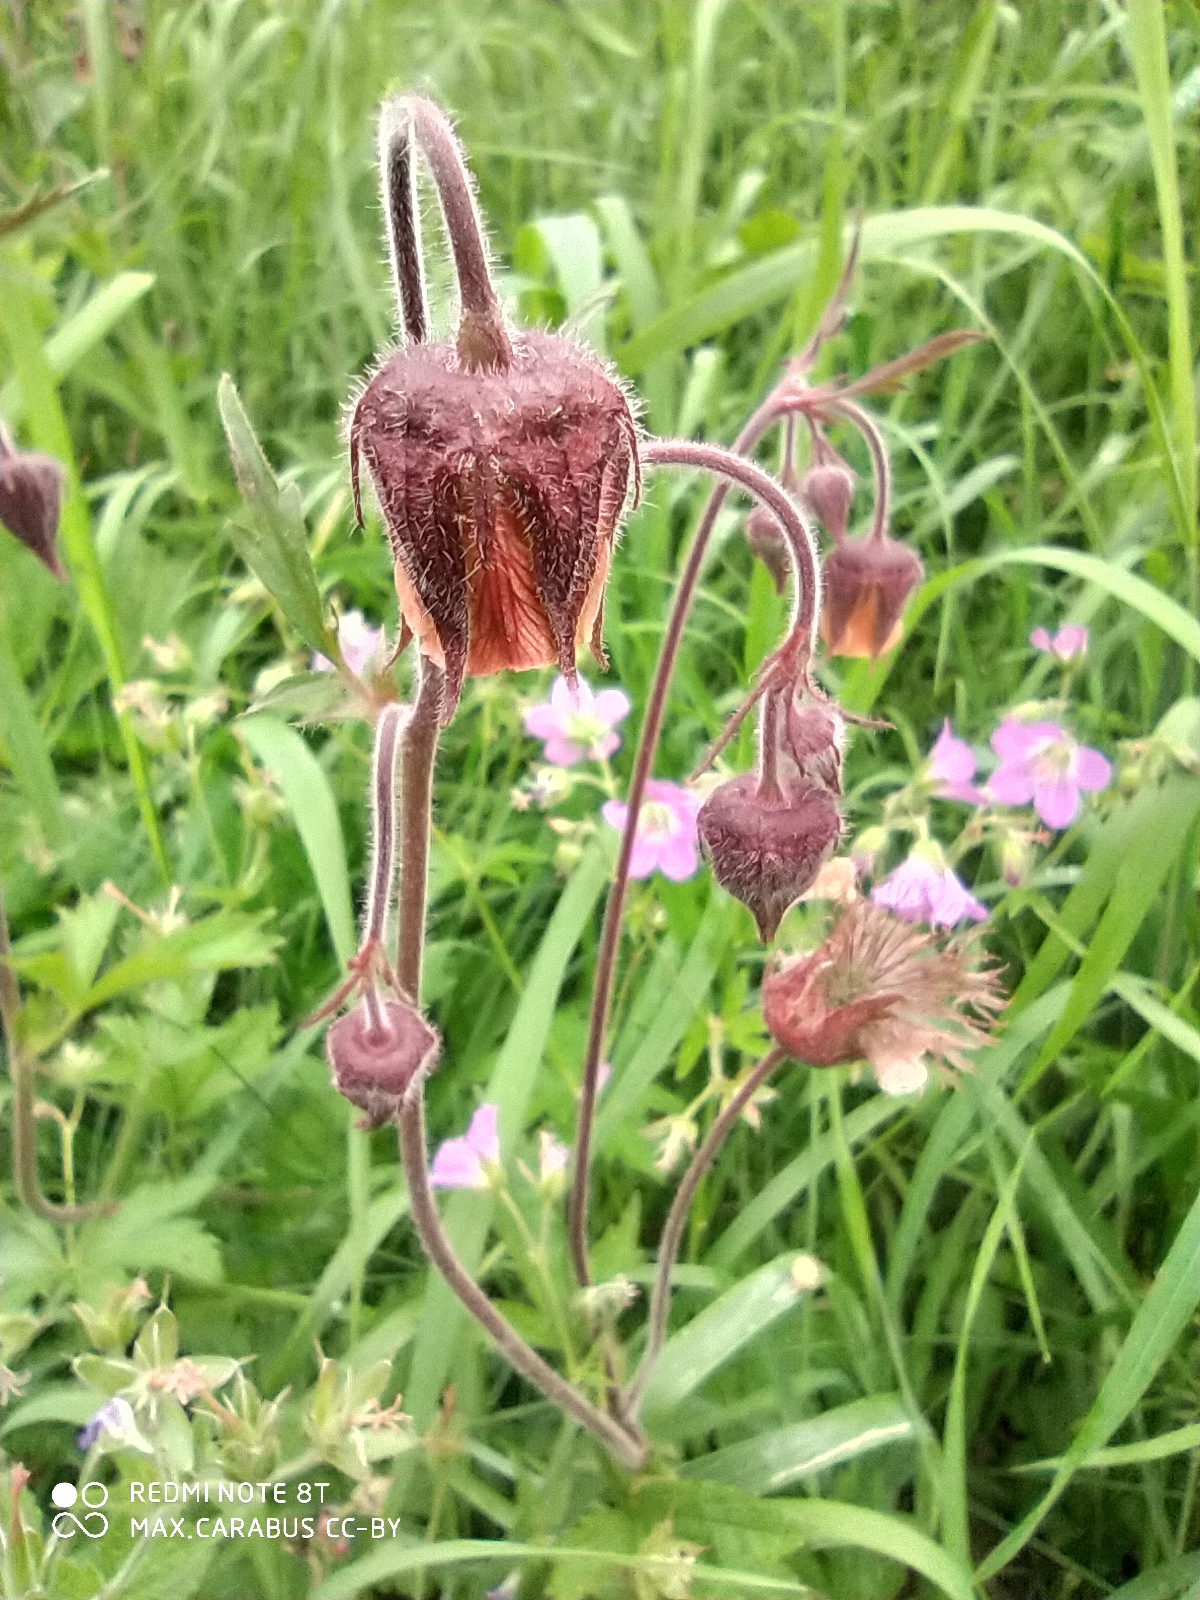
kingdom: Plantae
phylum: Tracheophyta
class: Magnoliopsida
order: Rosales
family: Rosaceae
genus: Geum
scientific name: Geum rivale
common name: Water avens
